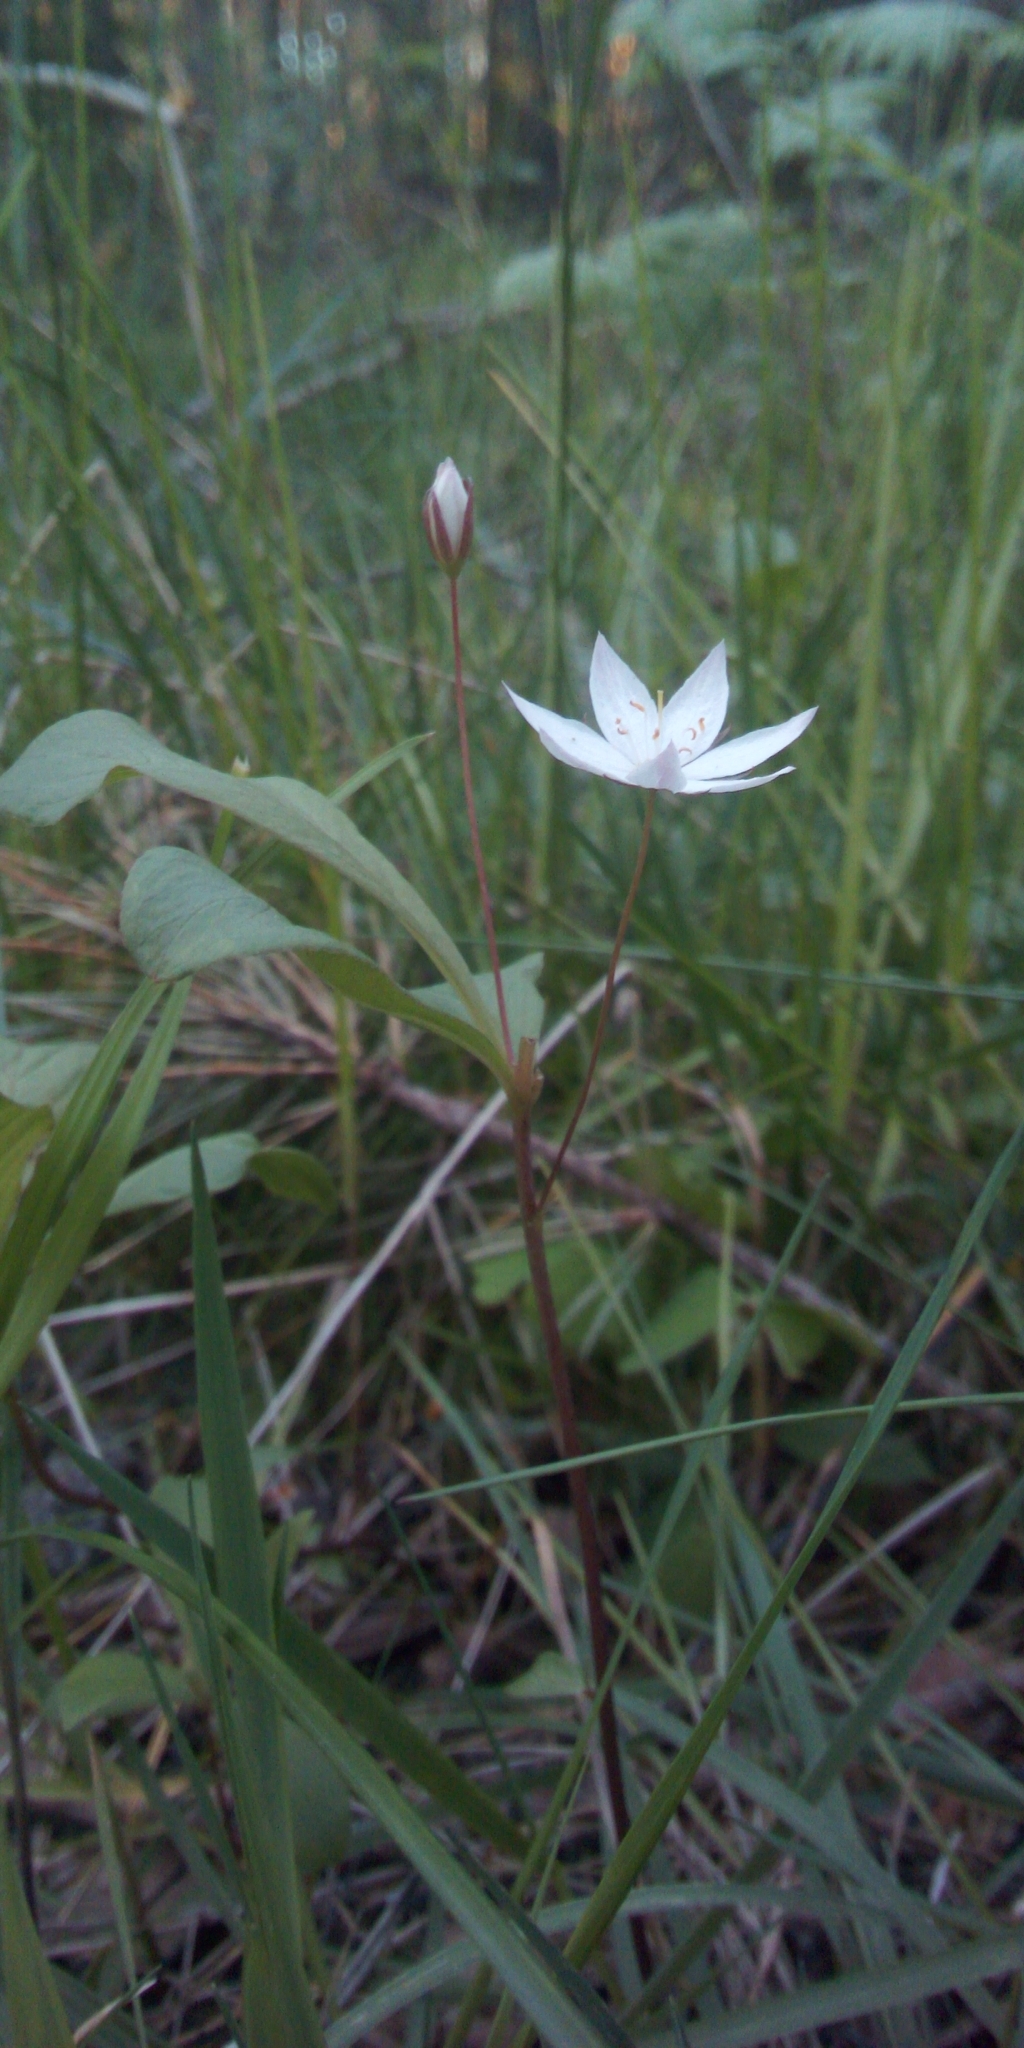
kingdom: Plantae
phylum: Tracheophyta
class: Magnoliopsida
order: Ericales
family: Primulaceae
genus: Lysimachia
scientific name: Lysimachia europaea
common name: Arctic starflower
